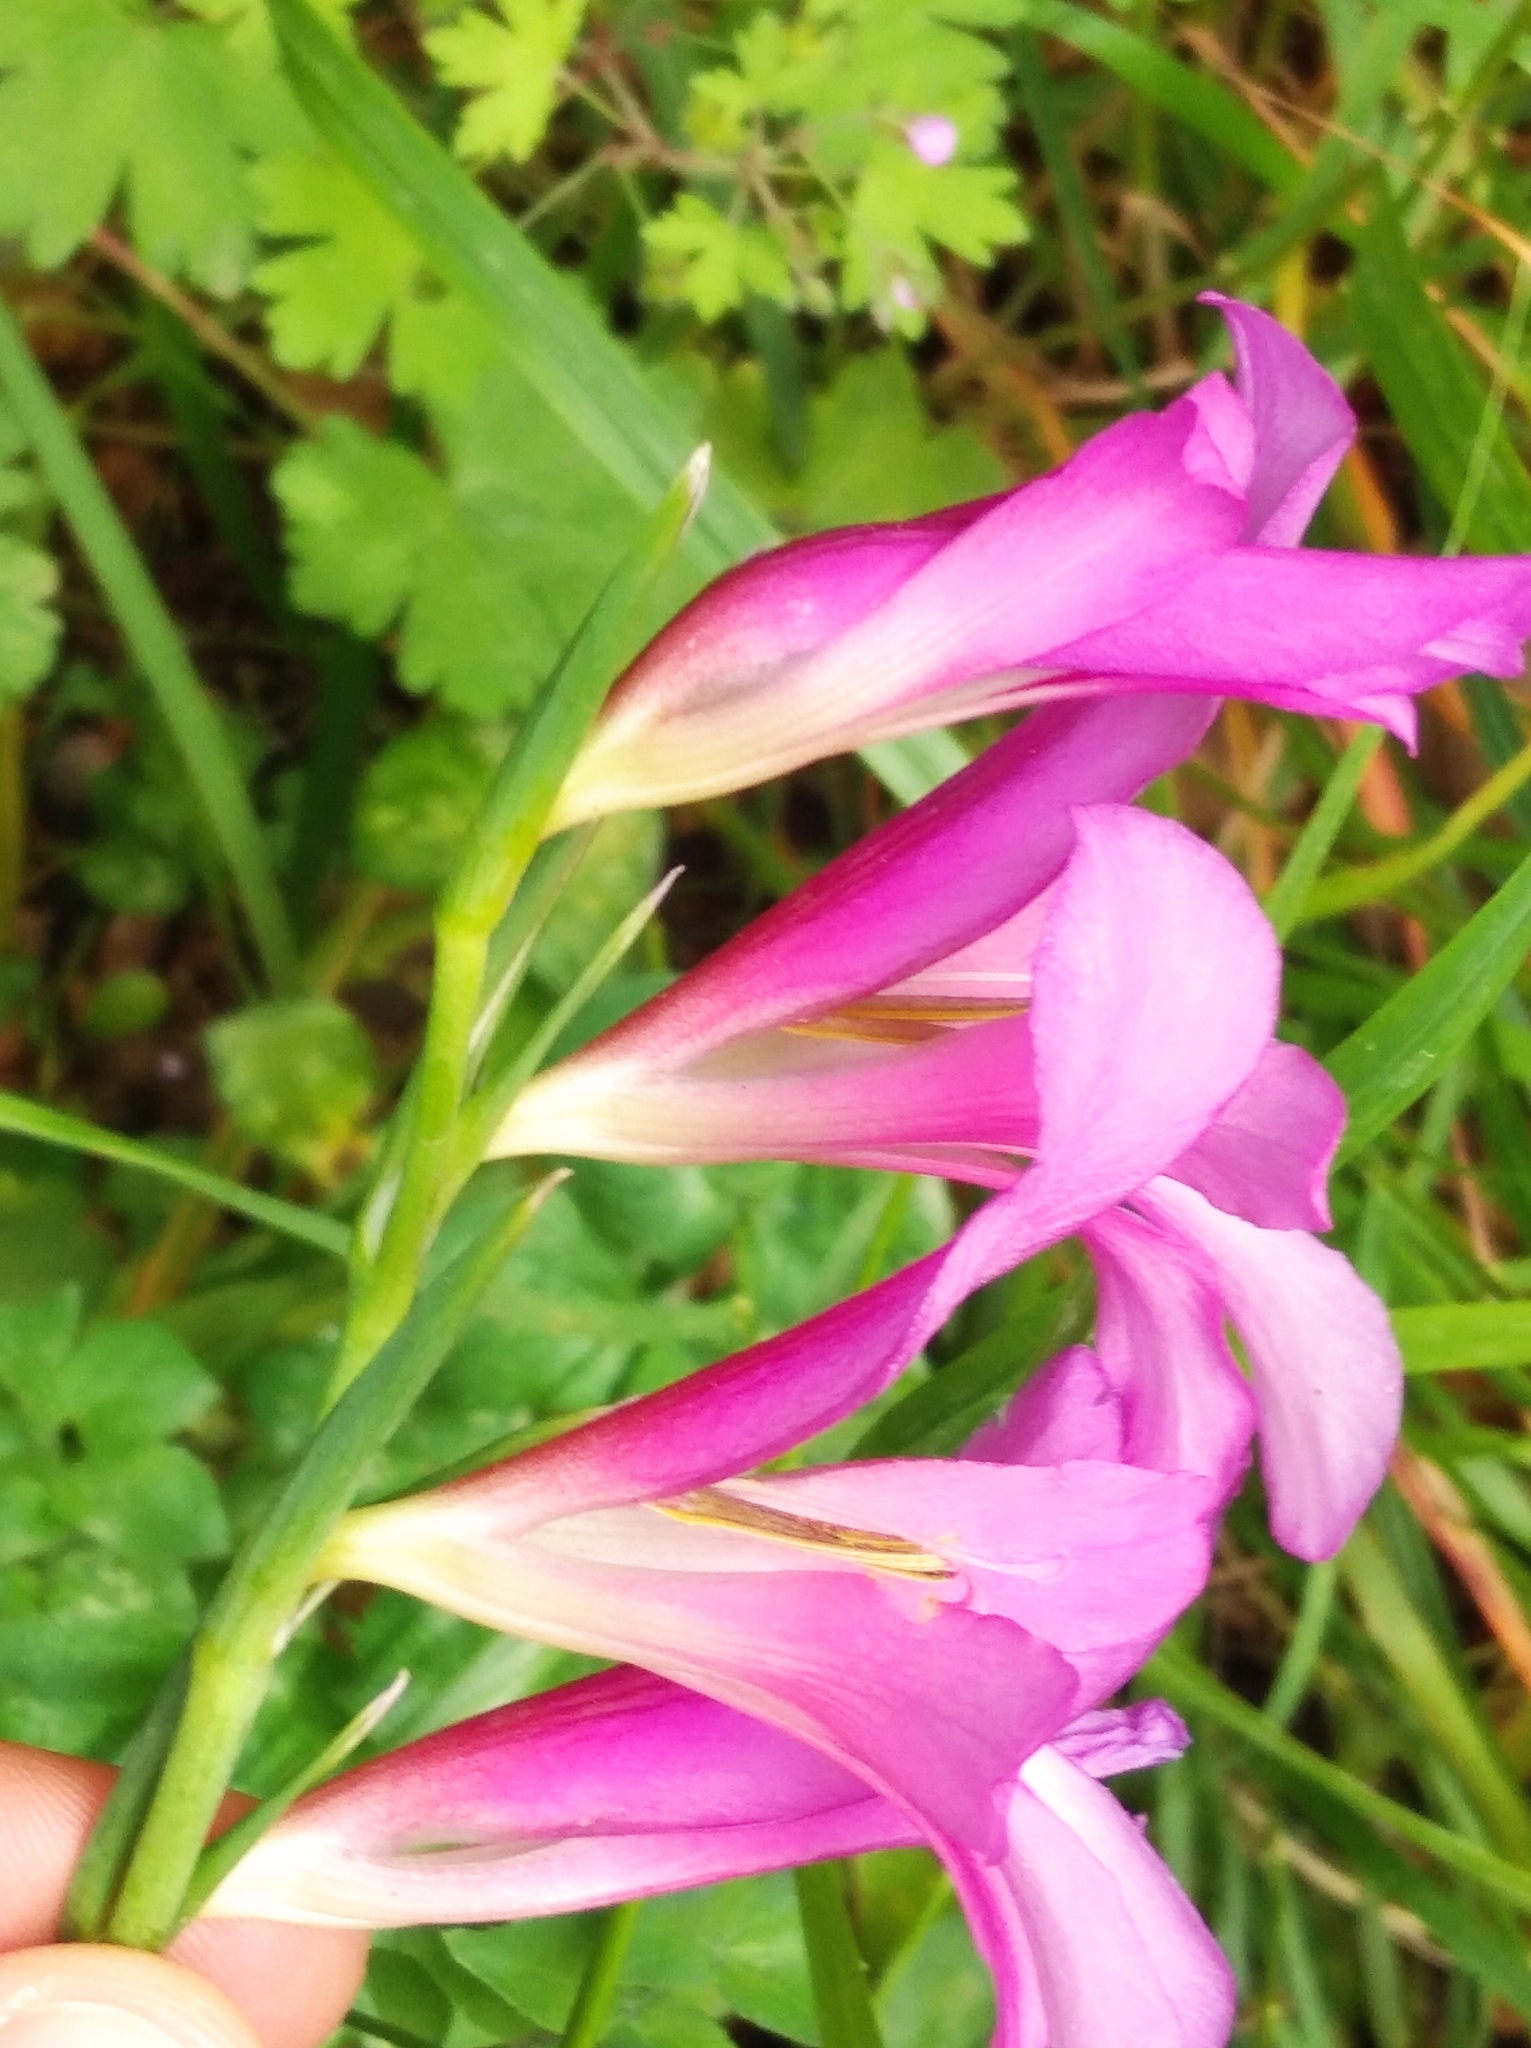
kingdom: Plantae
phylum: Tracheophyta
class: Liliopsida
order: Asparagales
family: Iridaceae
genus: Gladiolus
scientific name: Gladiolus italicus
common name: Field gladiolus
